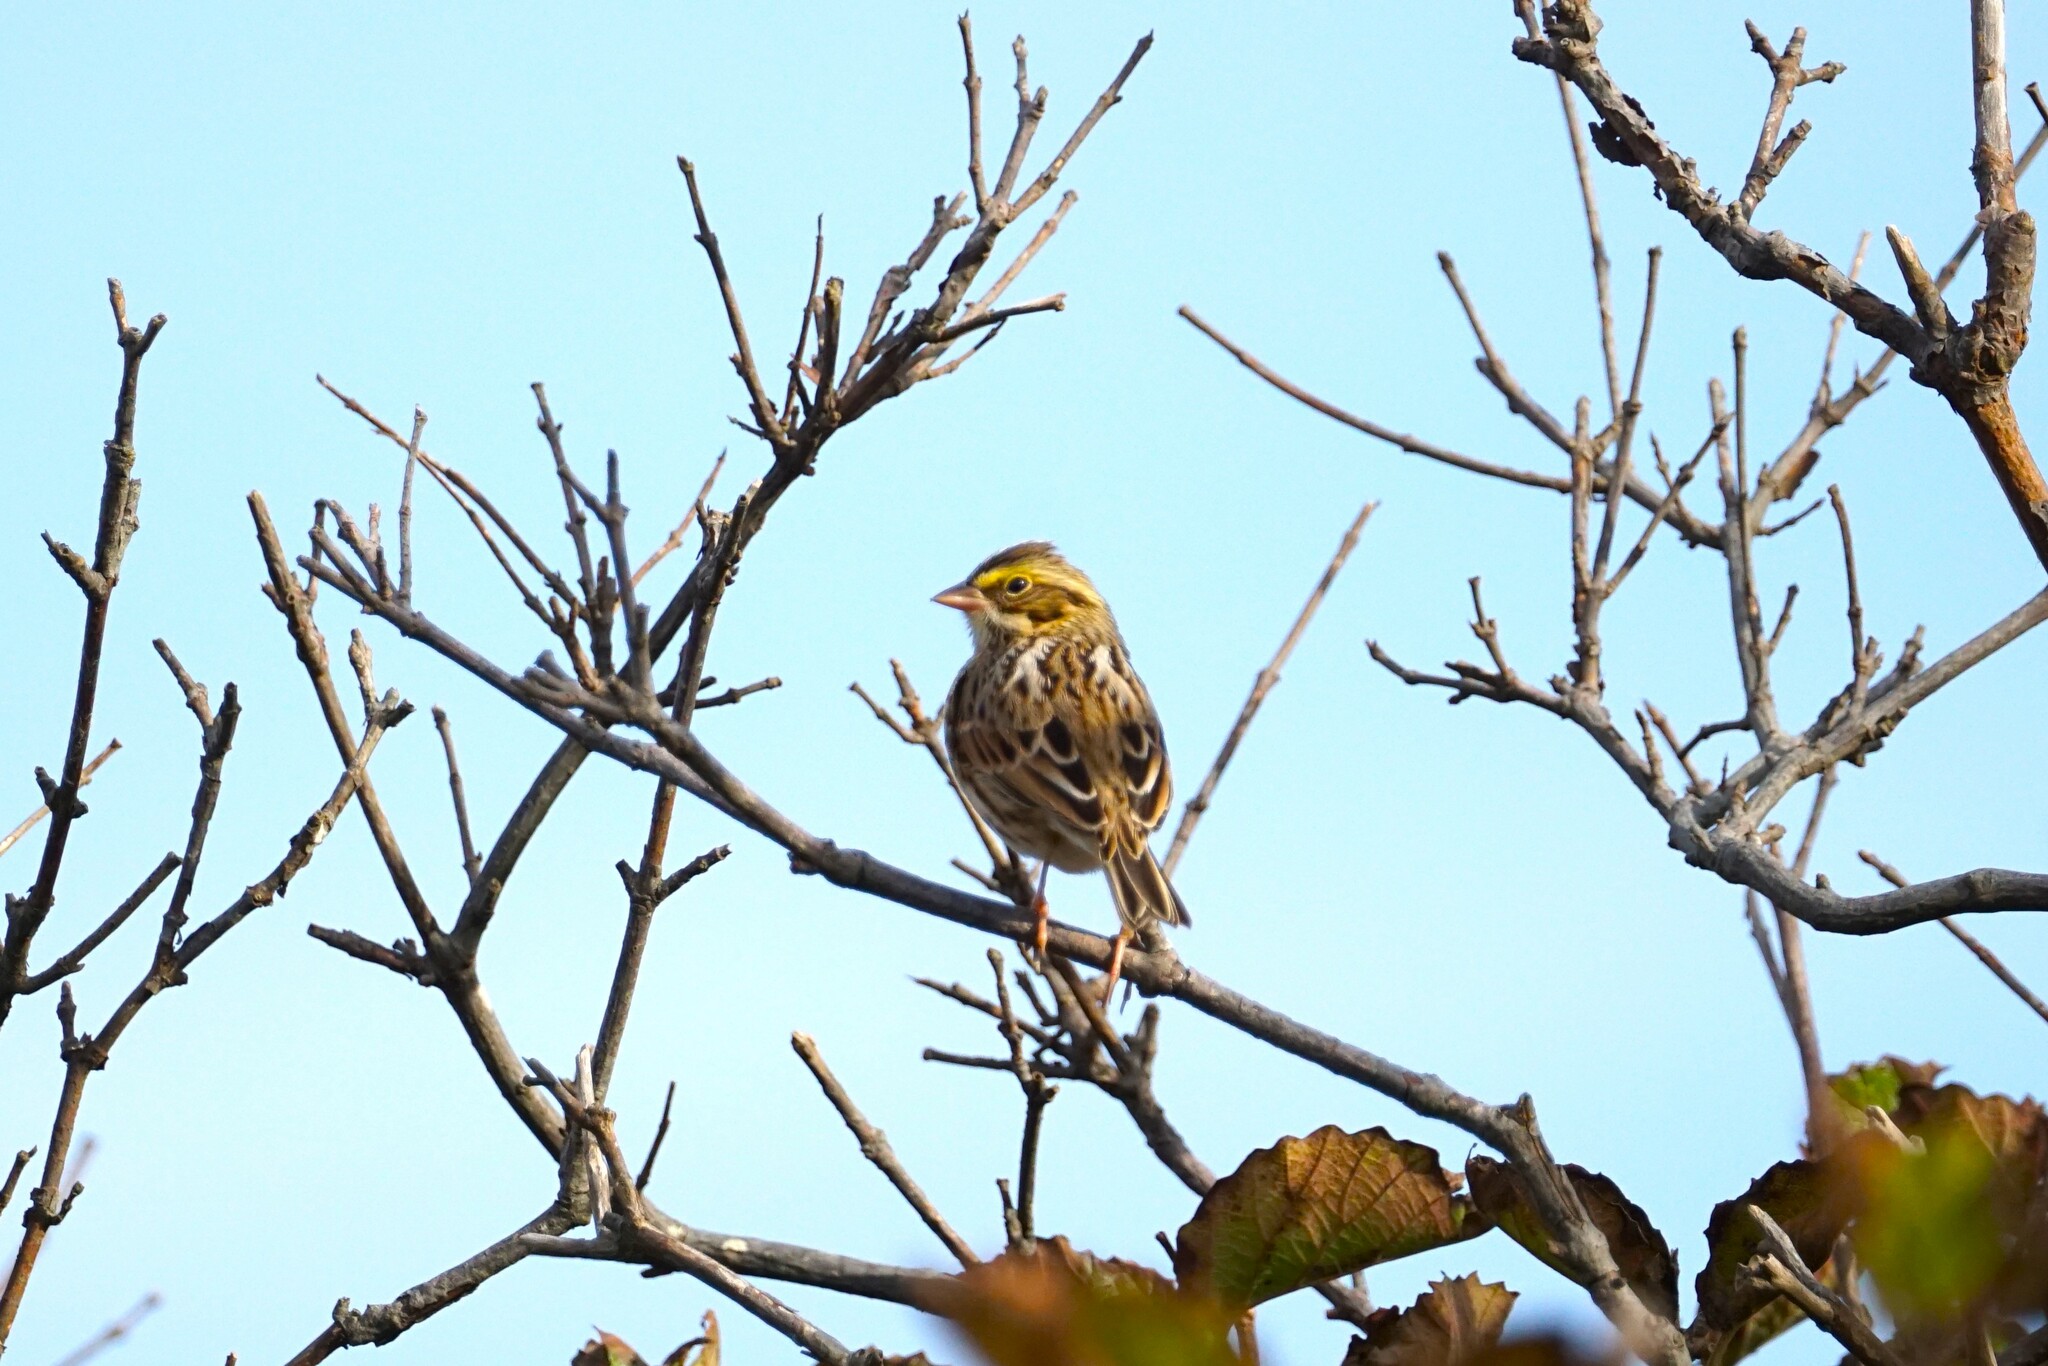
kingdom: Animalia
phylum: Chordata
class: Aves
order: Passeriformes
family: Passerellidae
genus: Passerculus
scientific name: Passerculus sandwichensis
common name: Savannah sparrow
